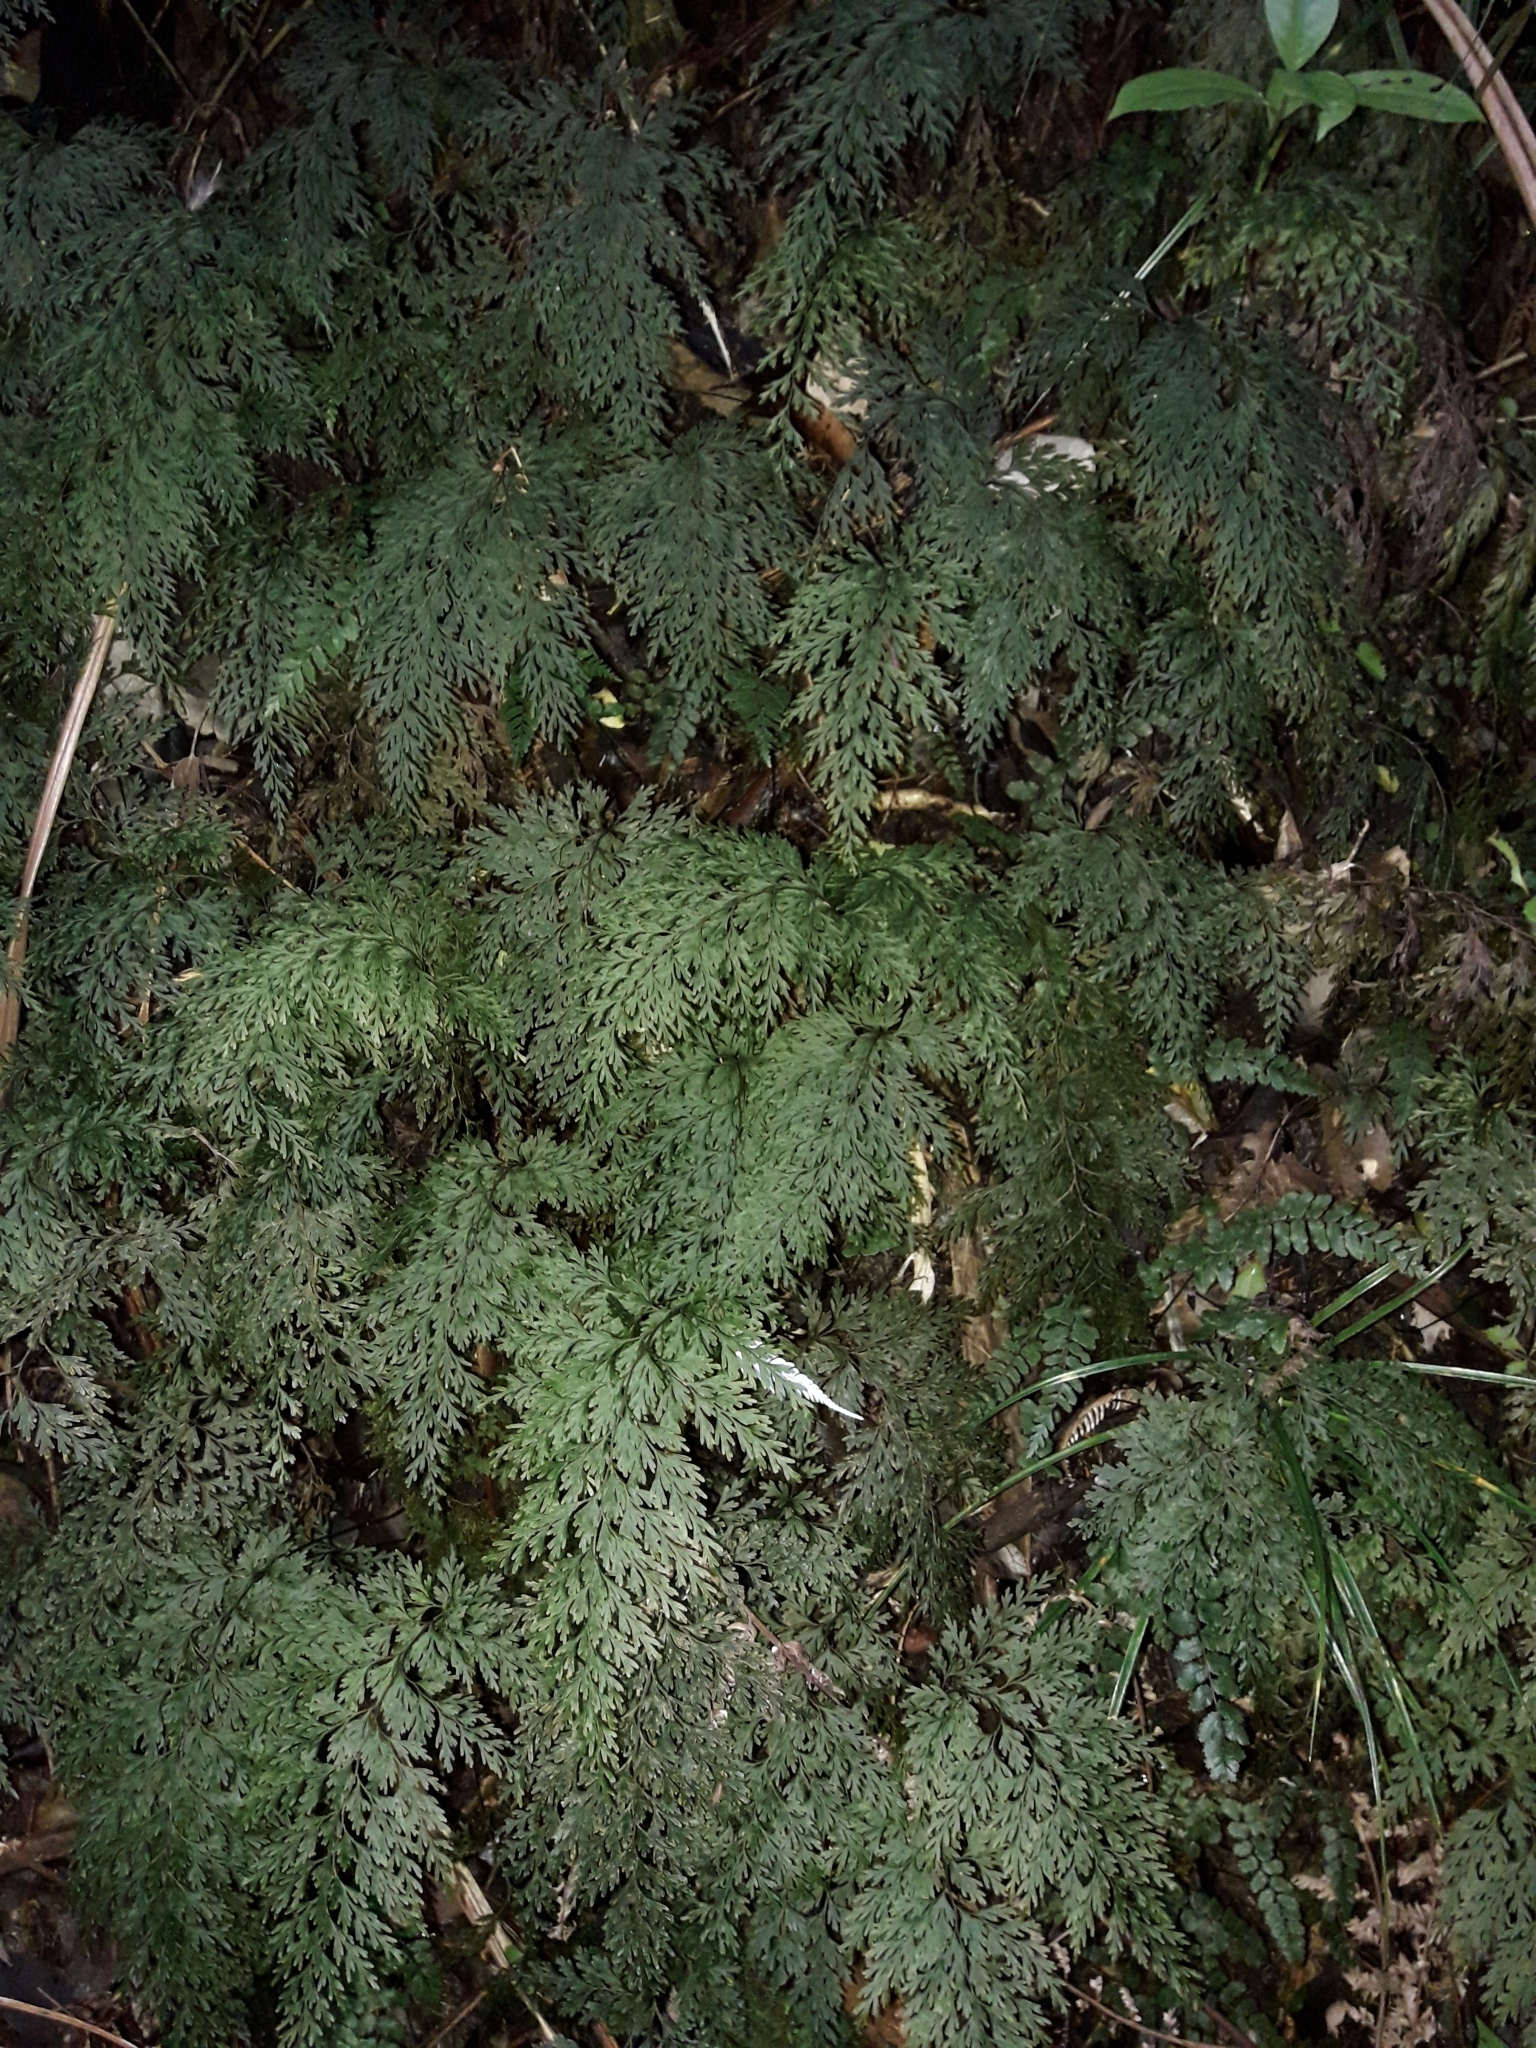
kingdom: Plantae
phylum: Tracheophyta
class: Polypodiopsida
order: Hymenophyllales
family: Hymenophyllaceae
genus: Hymenophyllum
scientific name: Hymenophyllum demissum
